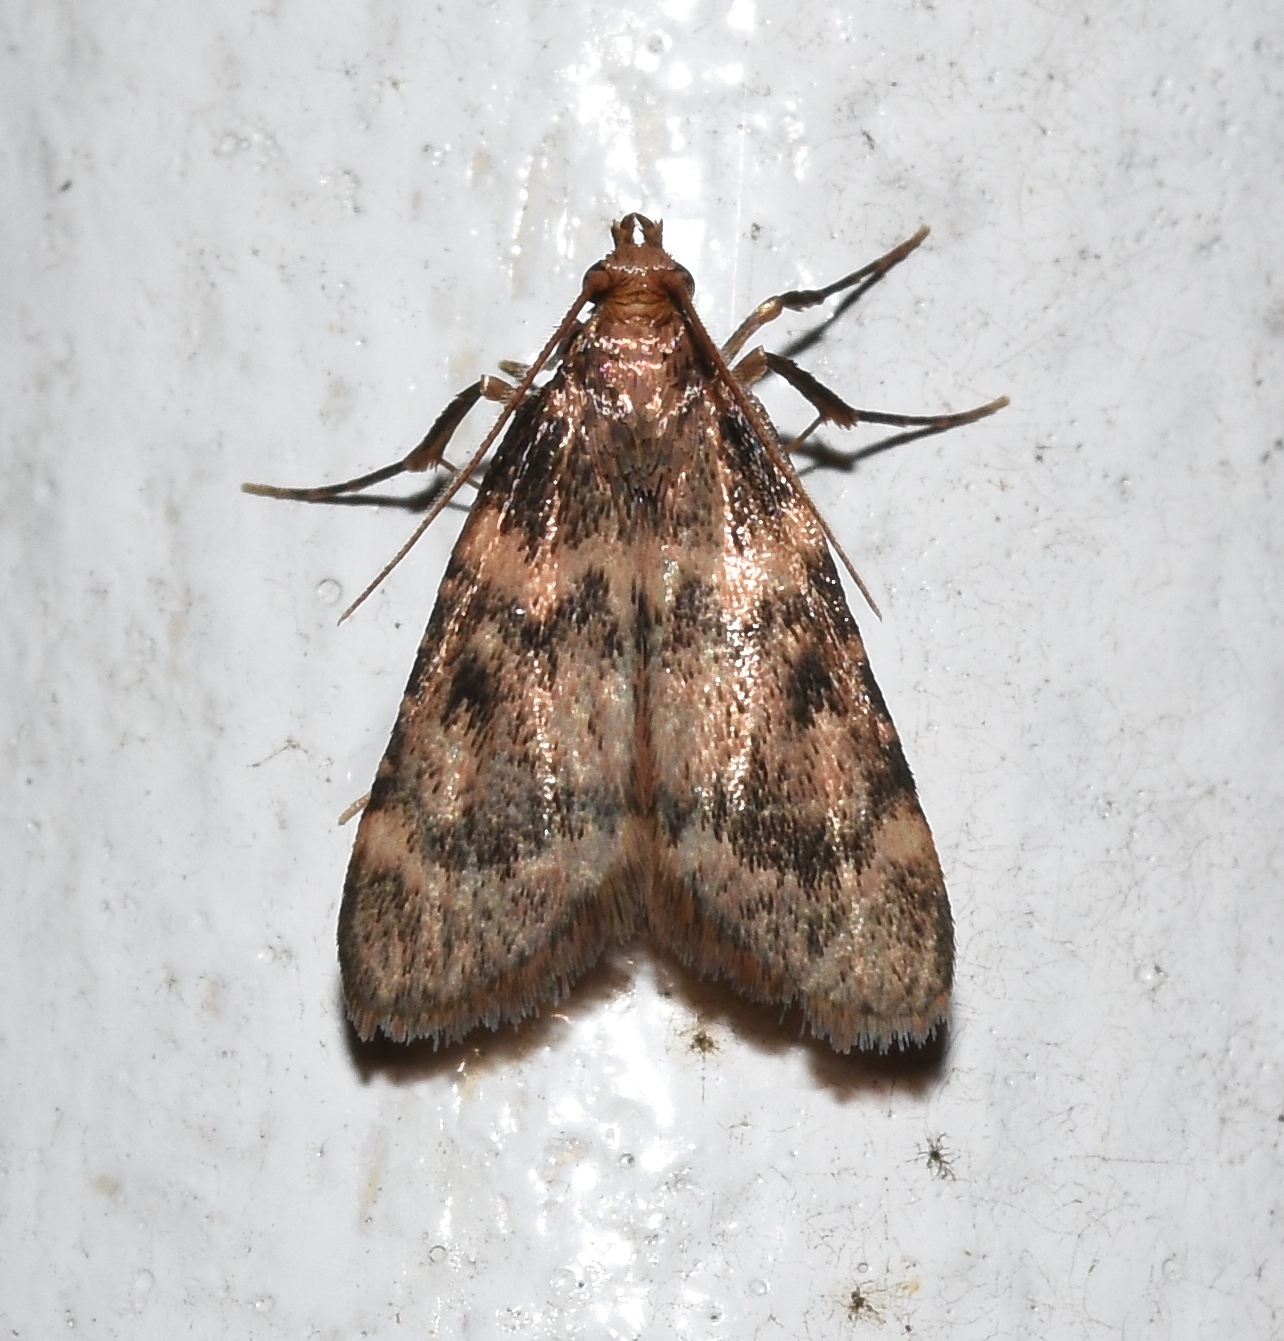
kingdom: Animalia
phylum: Arthropoda
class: Insecta
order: Lepidoptera
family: Pyralidae
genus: Aglossa
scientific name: Aglossa disciferalis
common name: Pink-masked pyralid moth
